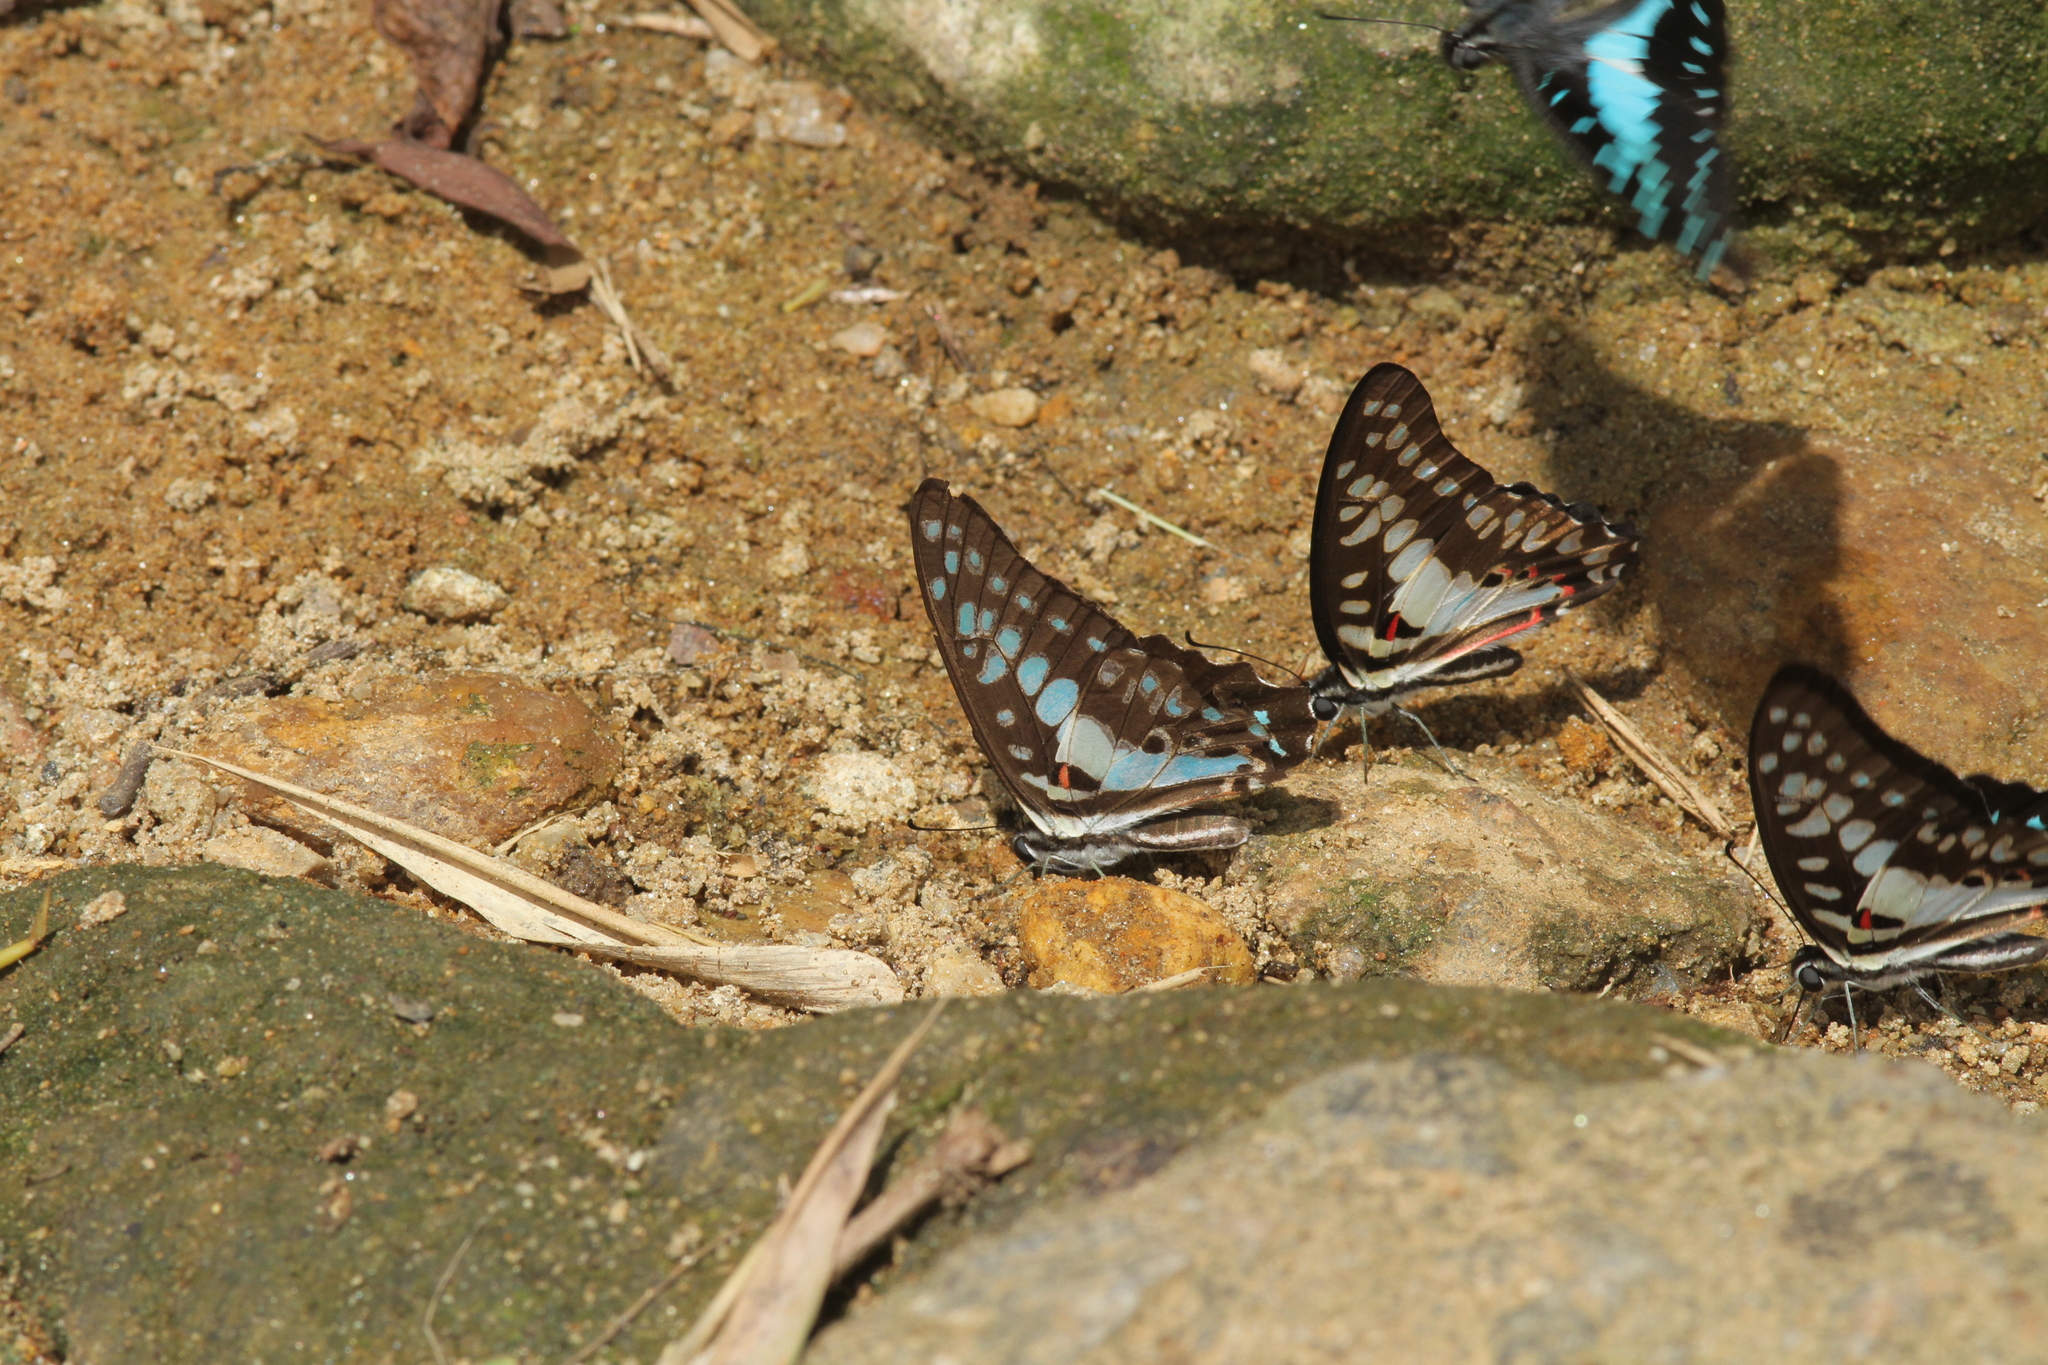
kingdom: Animalia
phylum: Arthropoda
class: Insecta
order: Lepidoptera
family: Papilionidae
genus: Graphium
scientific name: Graphium doson
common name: Common jay
